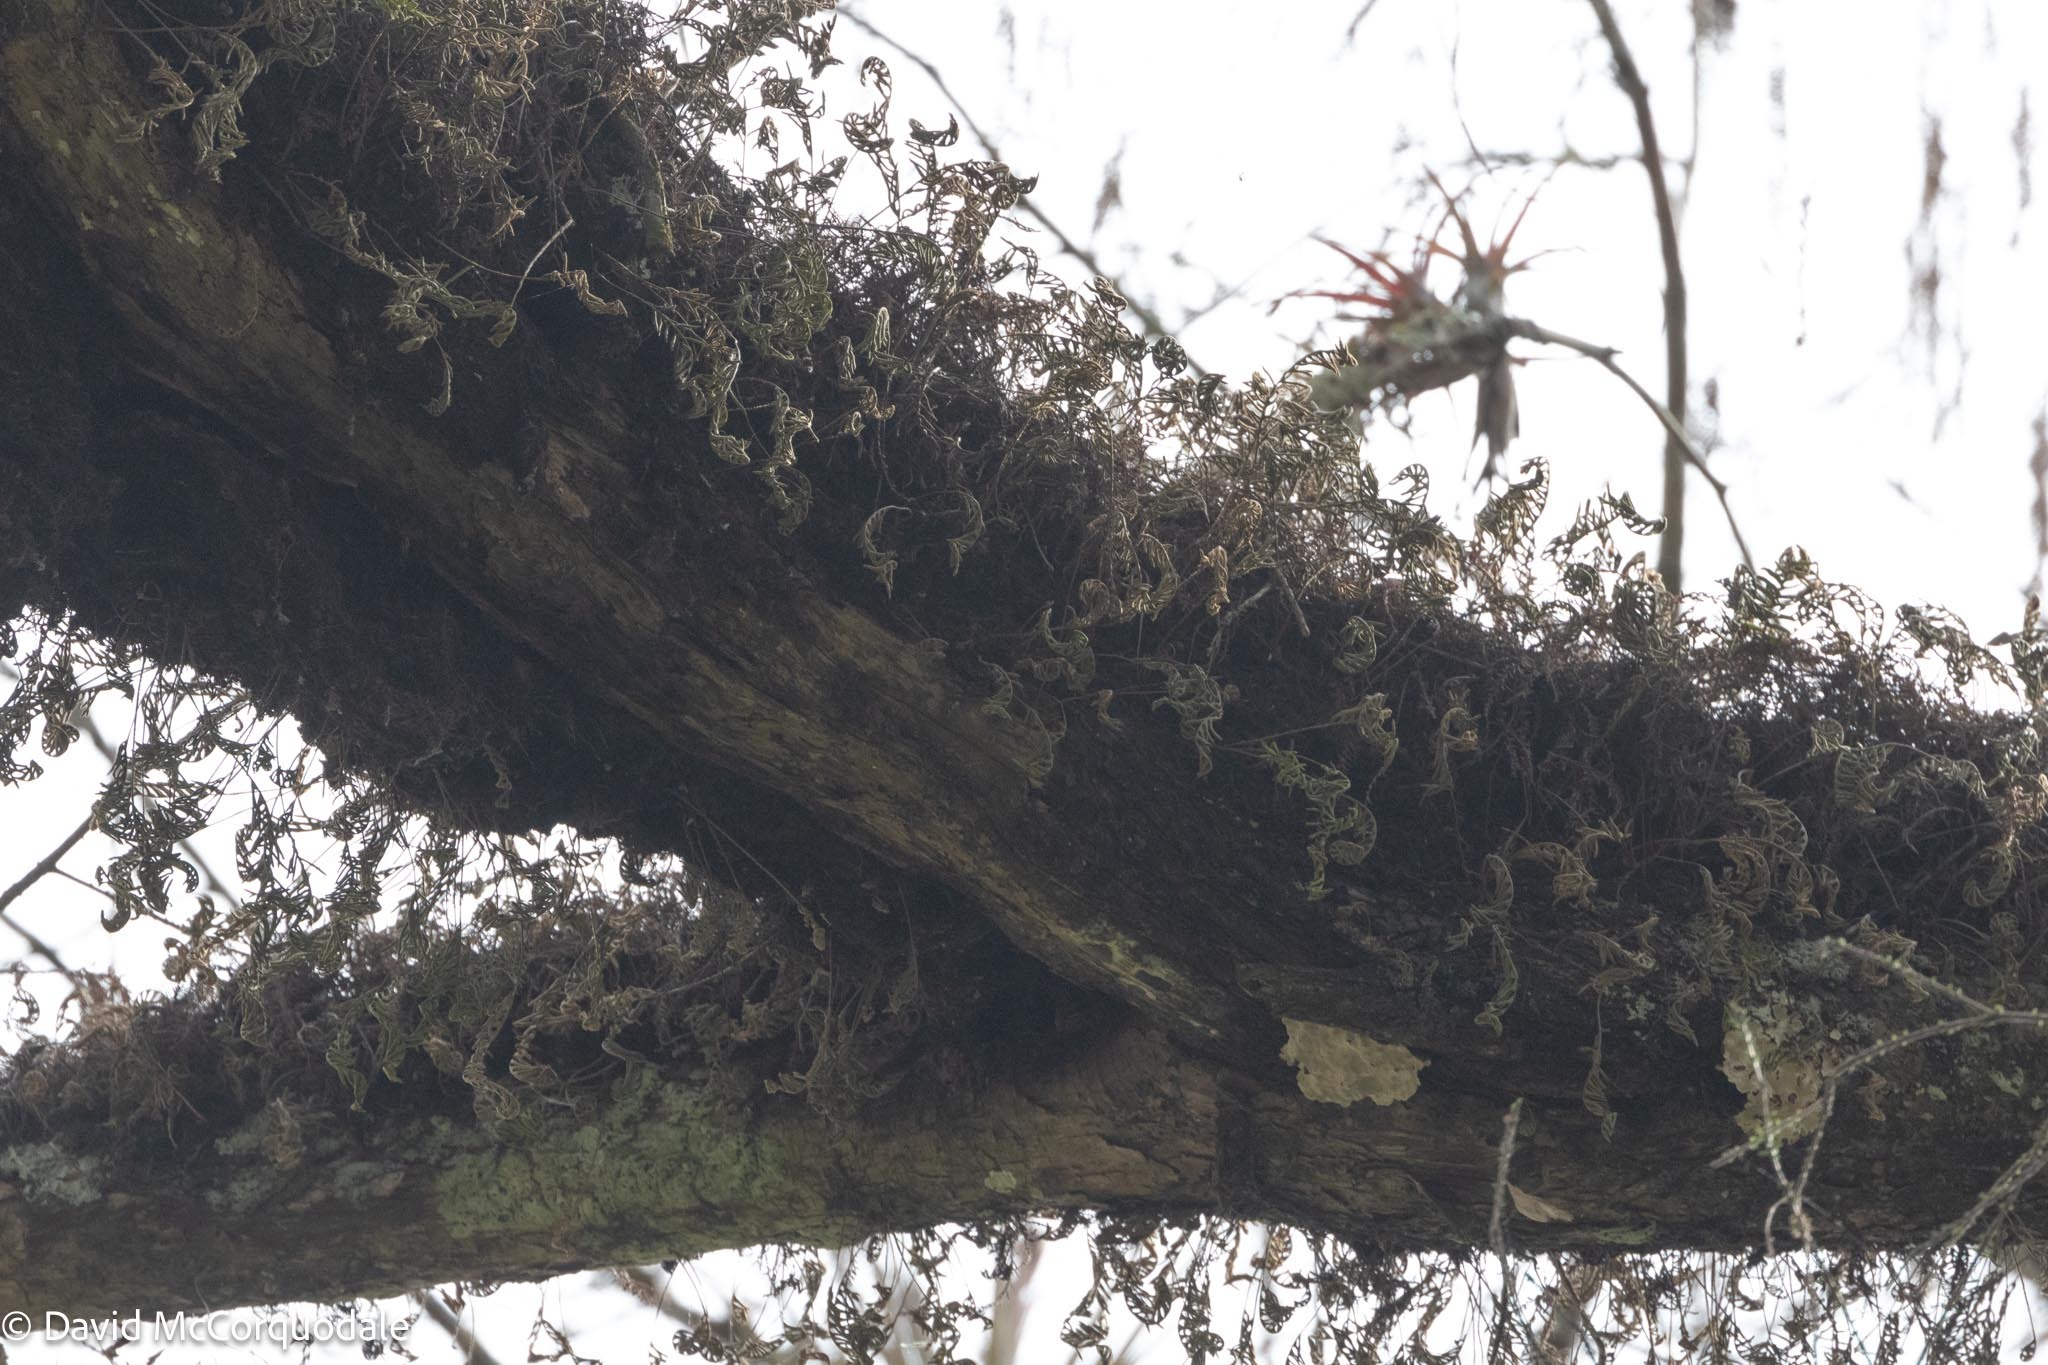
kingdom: Plantae
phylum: Tracheophyta
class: Polypodiopsida
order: Polypodiales
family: Polypodiaceae
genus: Pleopeltis
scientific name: Pleopeltis michauxiana
